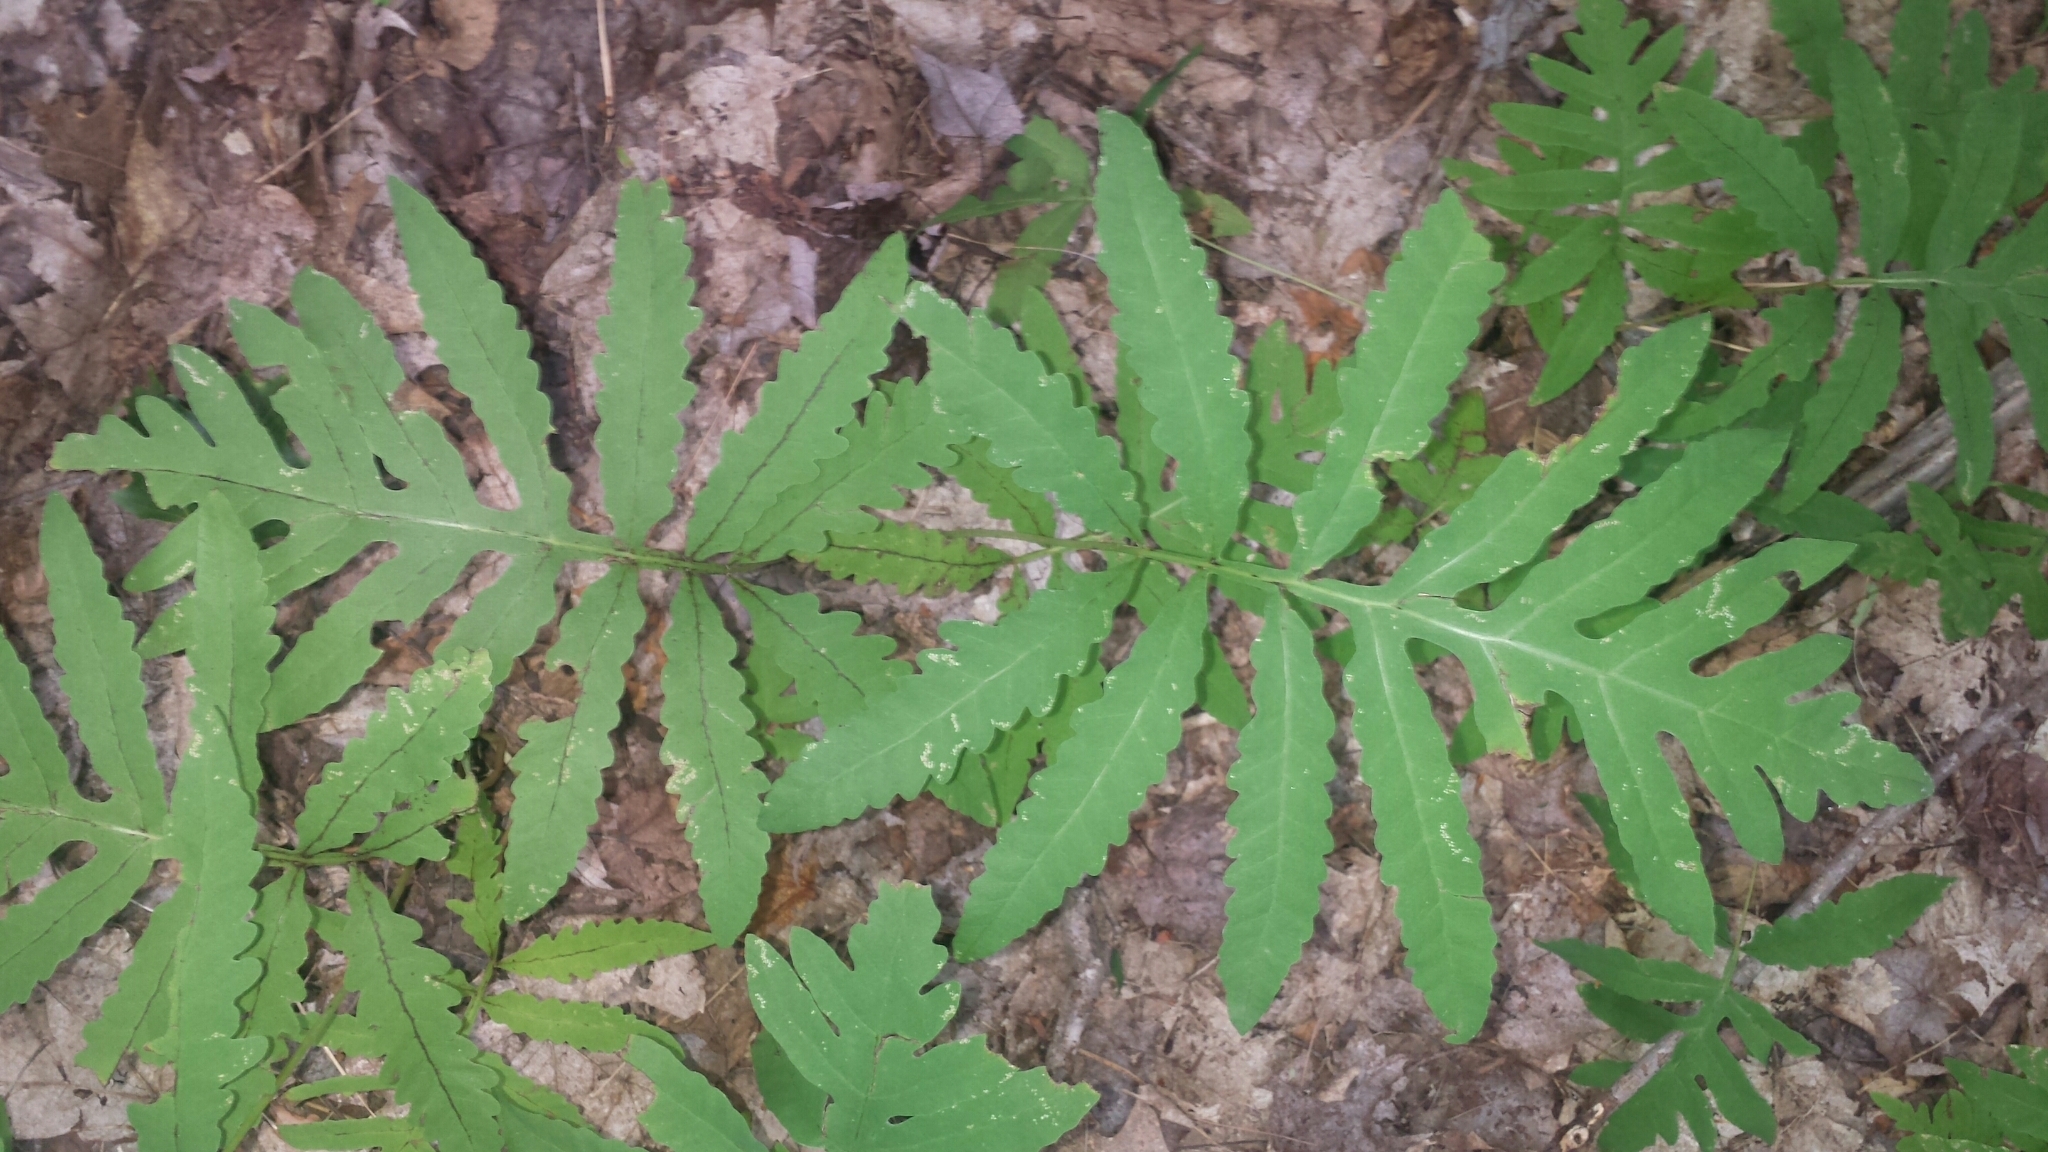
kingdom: Plantae
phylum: Tracheophyta
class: Polypodiopsida
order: Polypodiales
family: Onocleaceae
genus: Onoclea
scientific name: Onoclea sensibilis
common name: Sensitive fern
